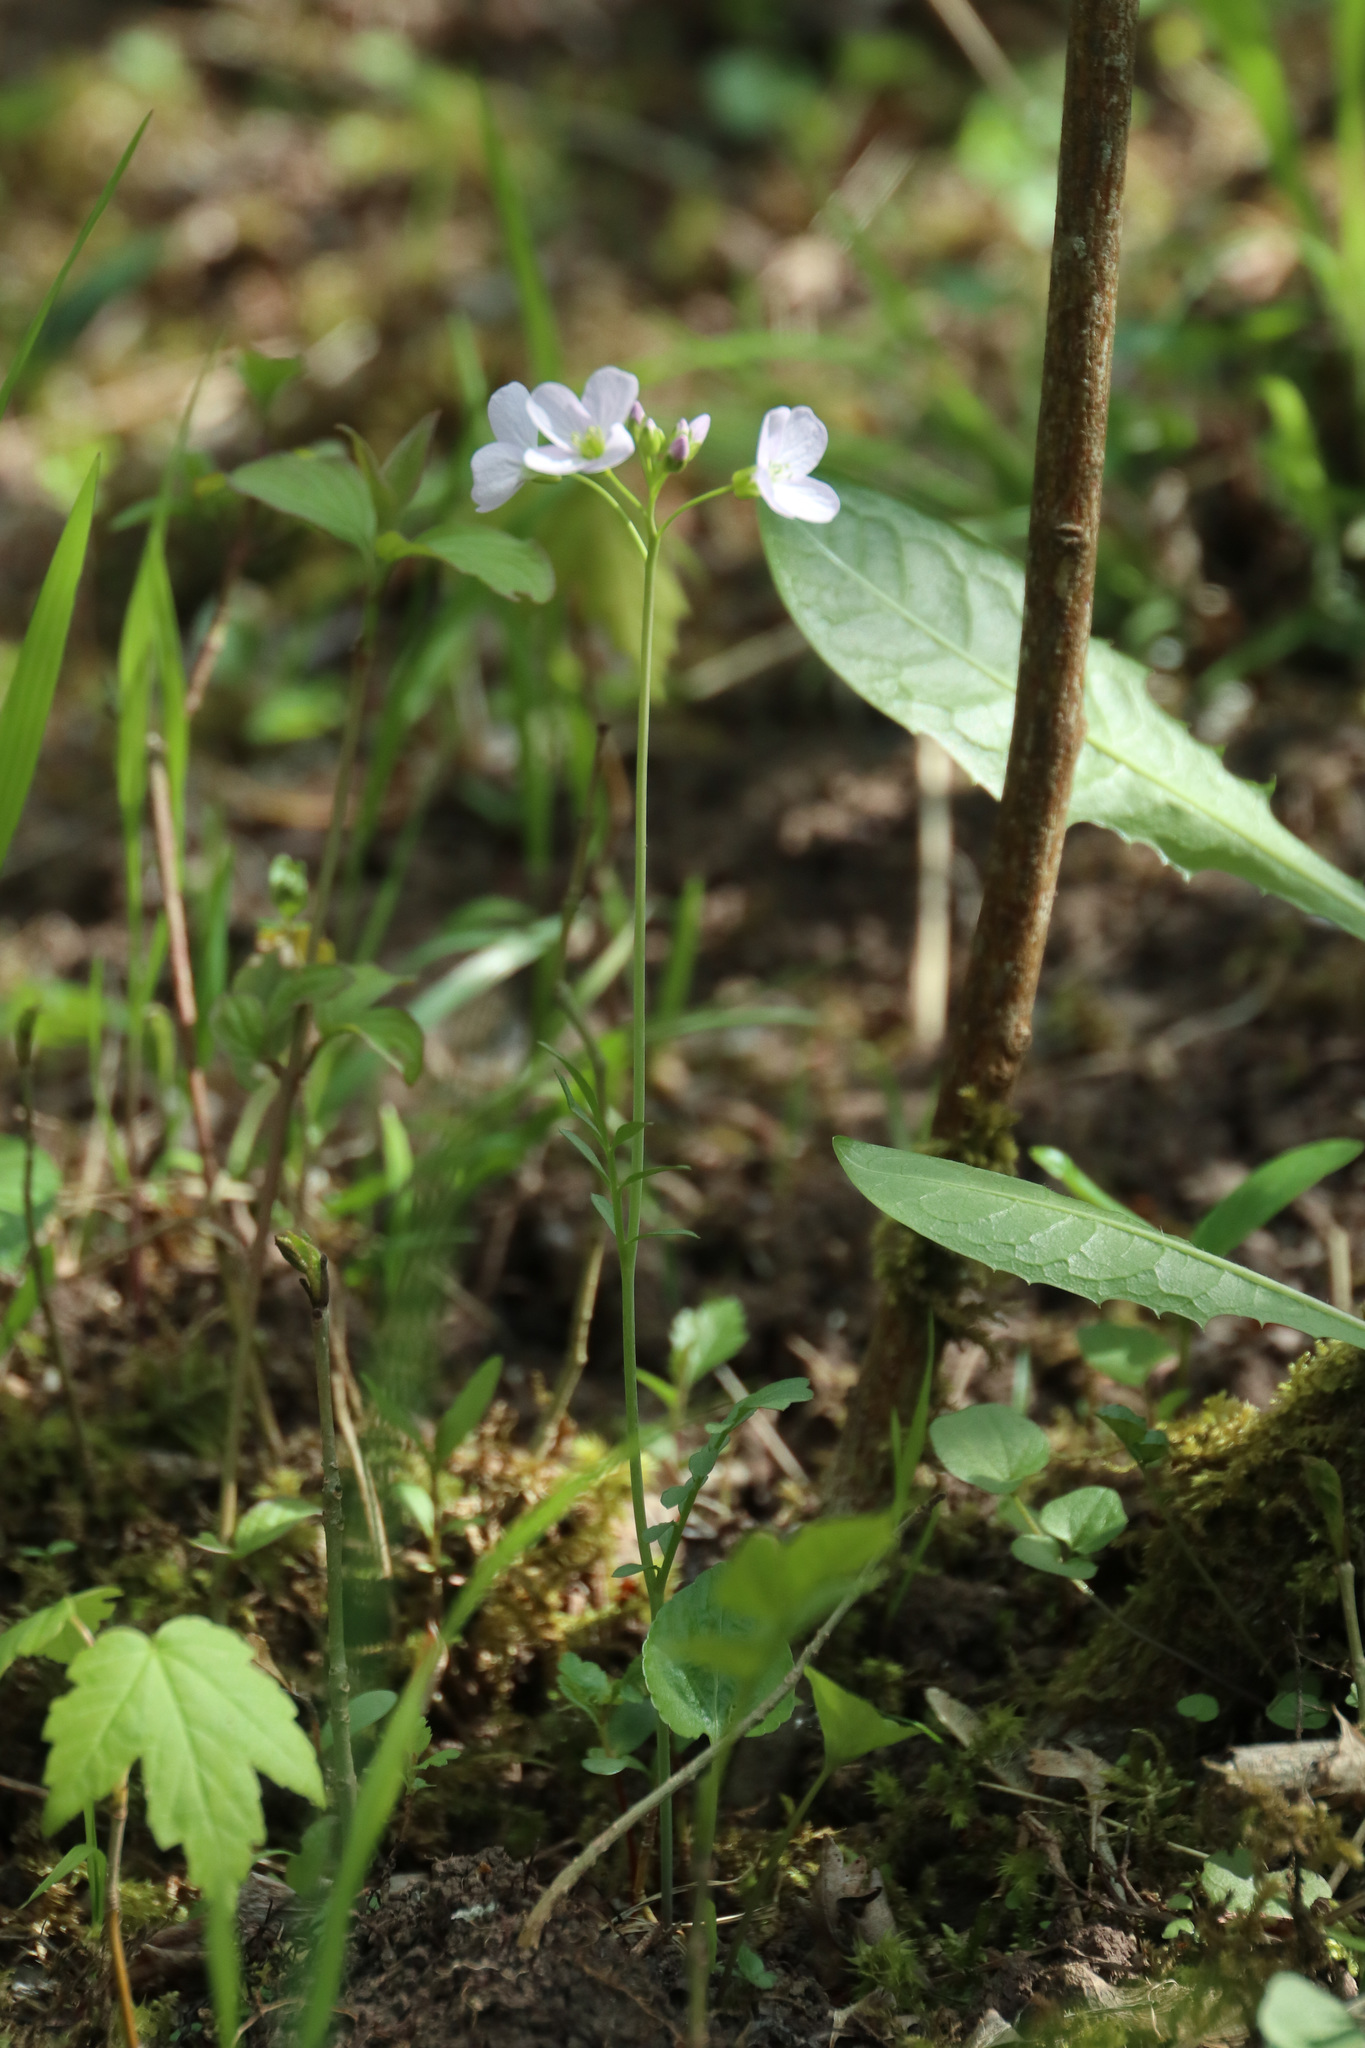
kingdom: Plantae
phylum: Tracheophyta
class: Magnoliopsida
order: Brassicales
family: Brassicaceae
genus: Cardamine
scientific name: Cardamine pratensis
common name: Cuckoo flower
